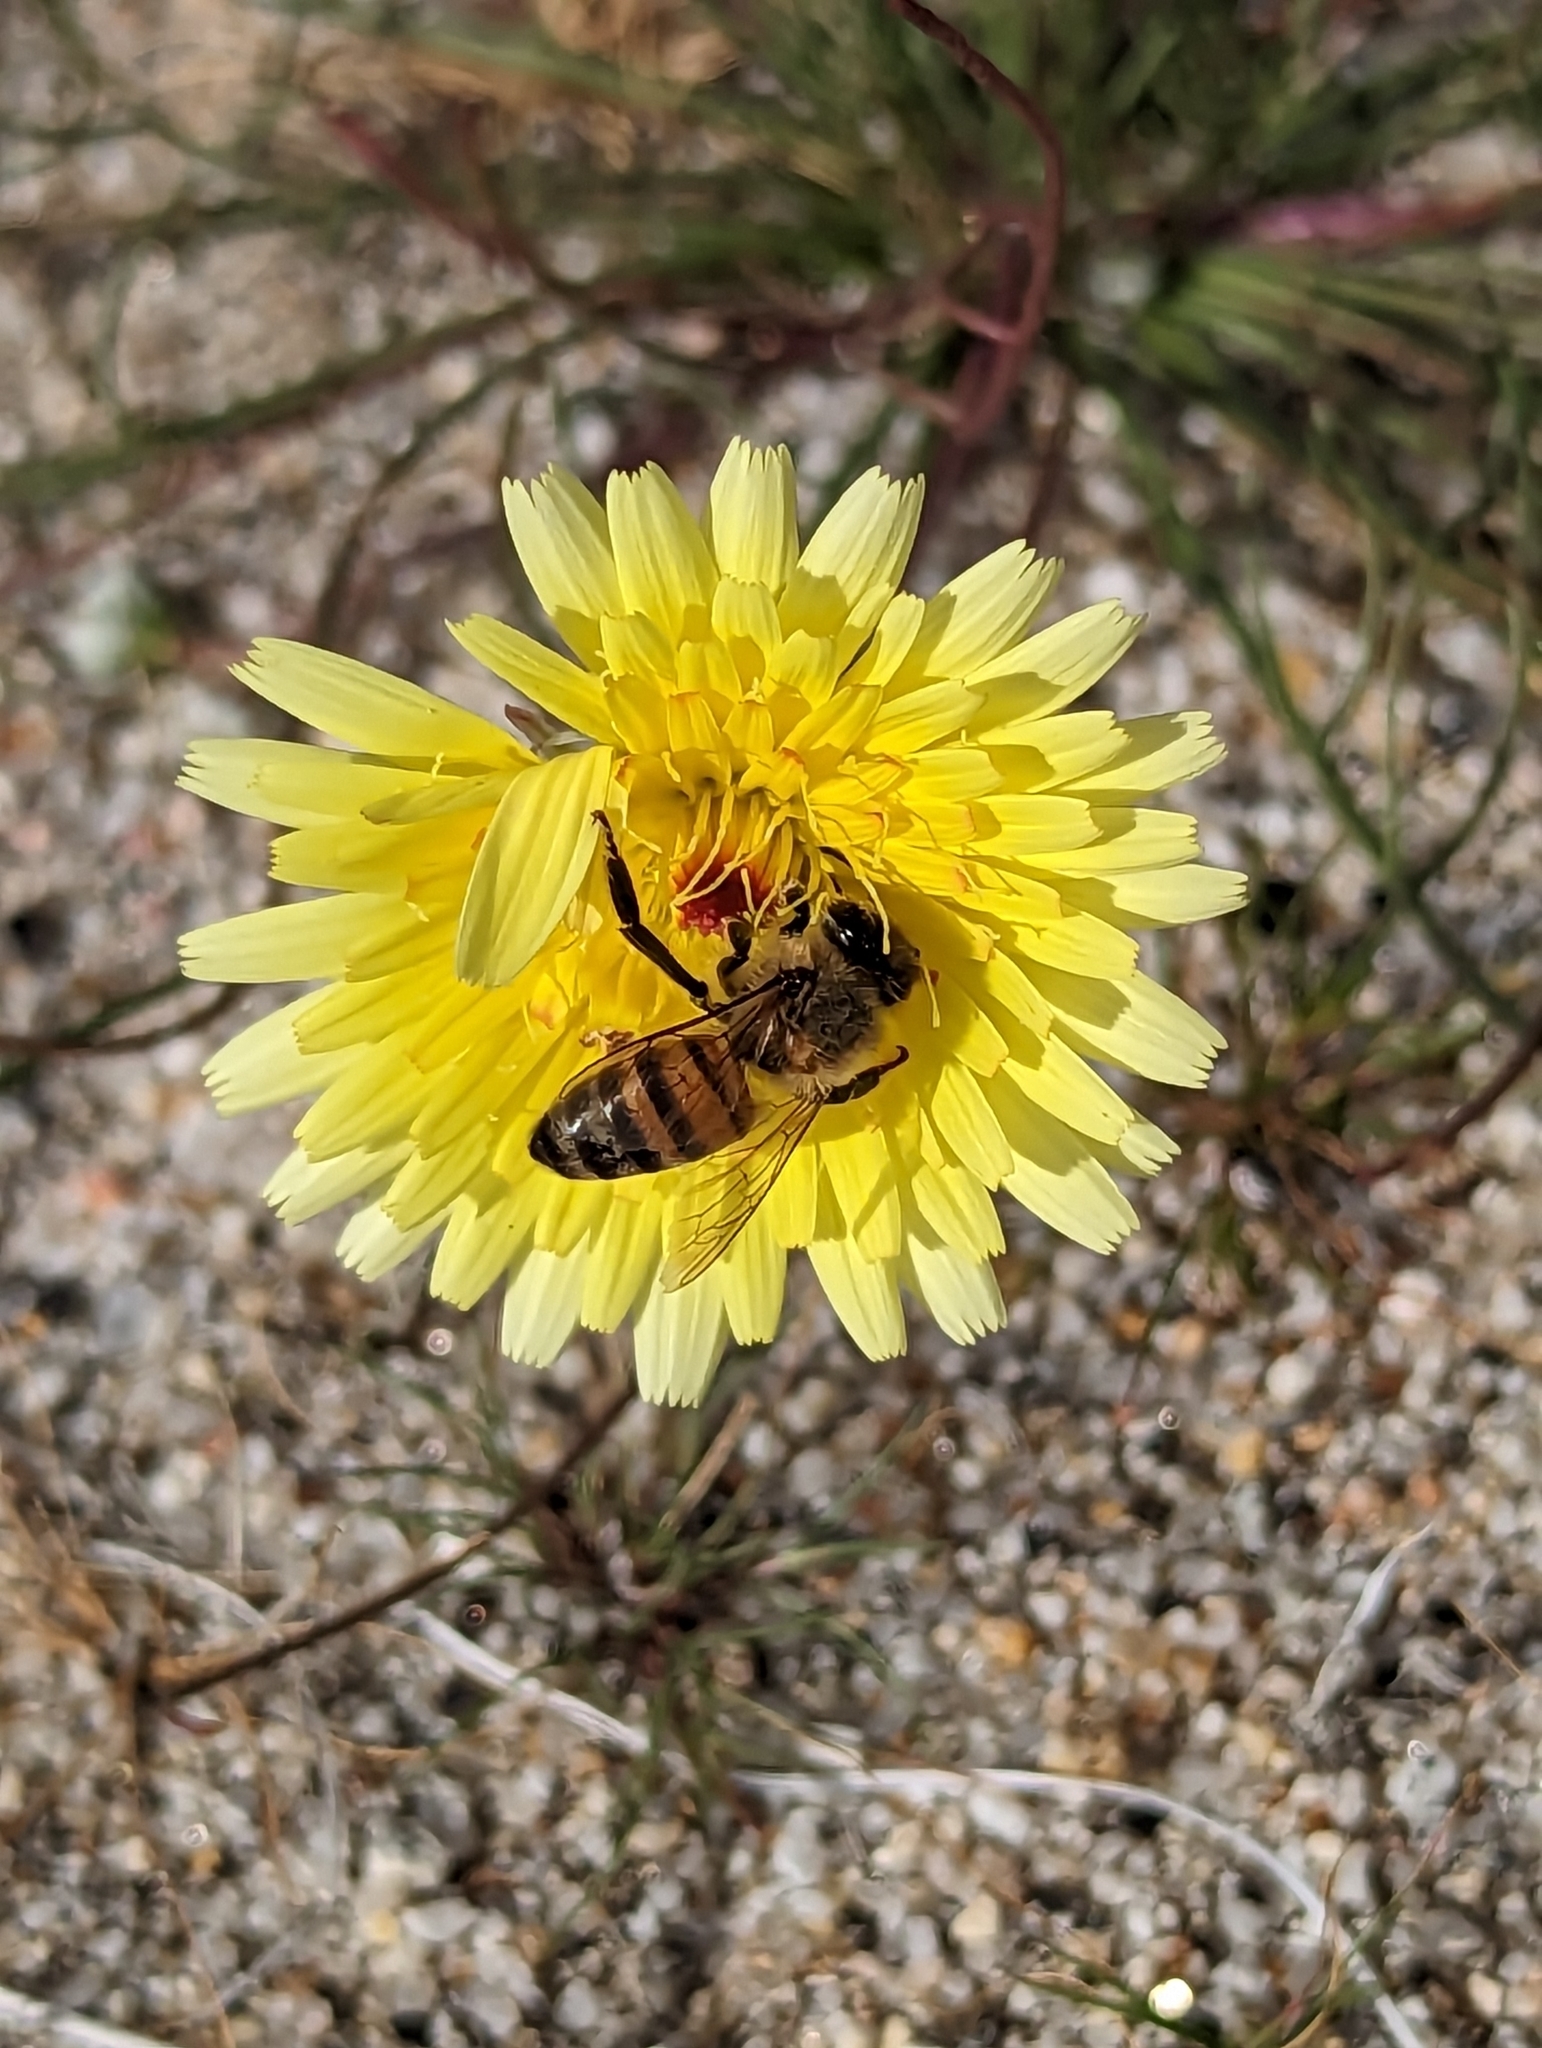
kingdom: Animalia
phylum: Arthropoda
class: Insecta
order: Hymenoptera
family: Apidae
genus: Apis
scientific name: Apis mellifera
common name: Honey bee
